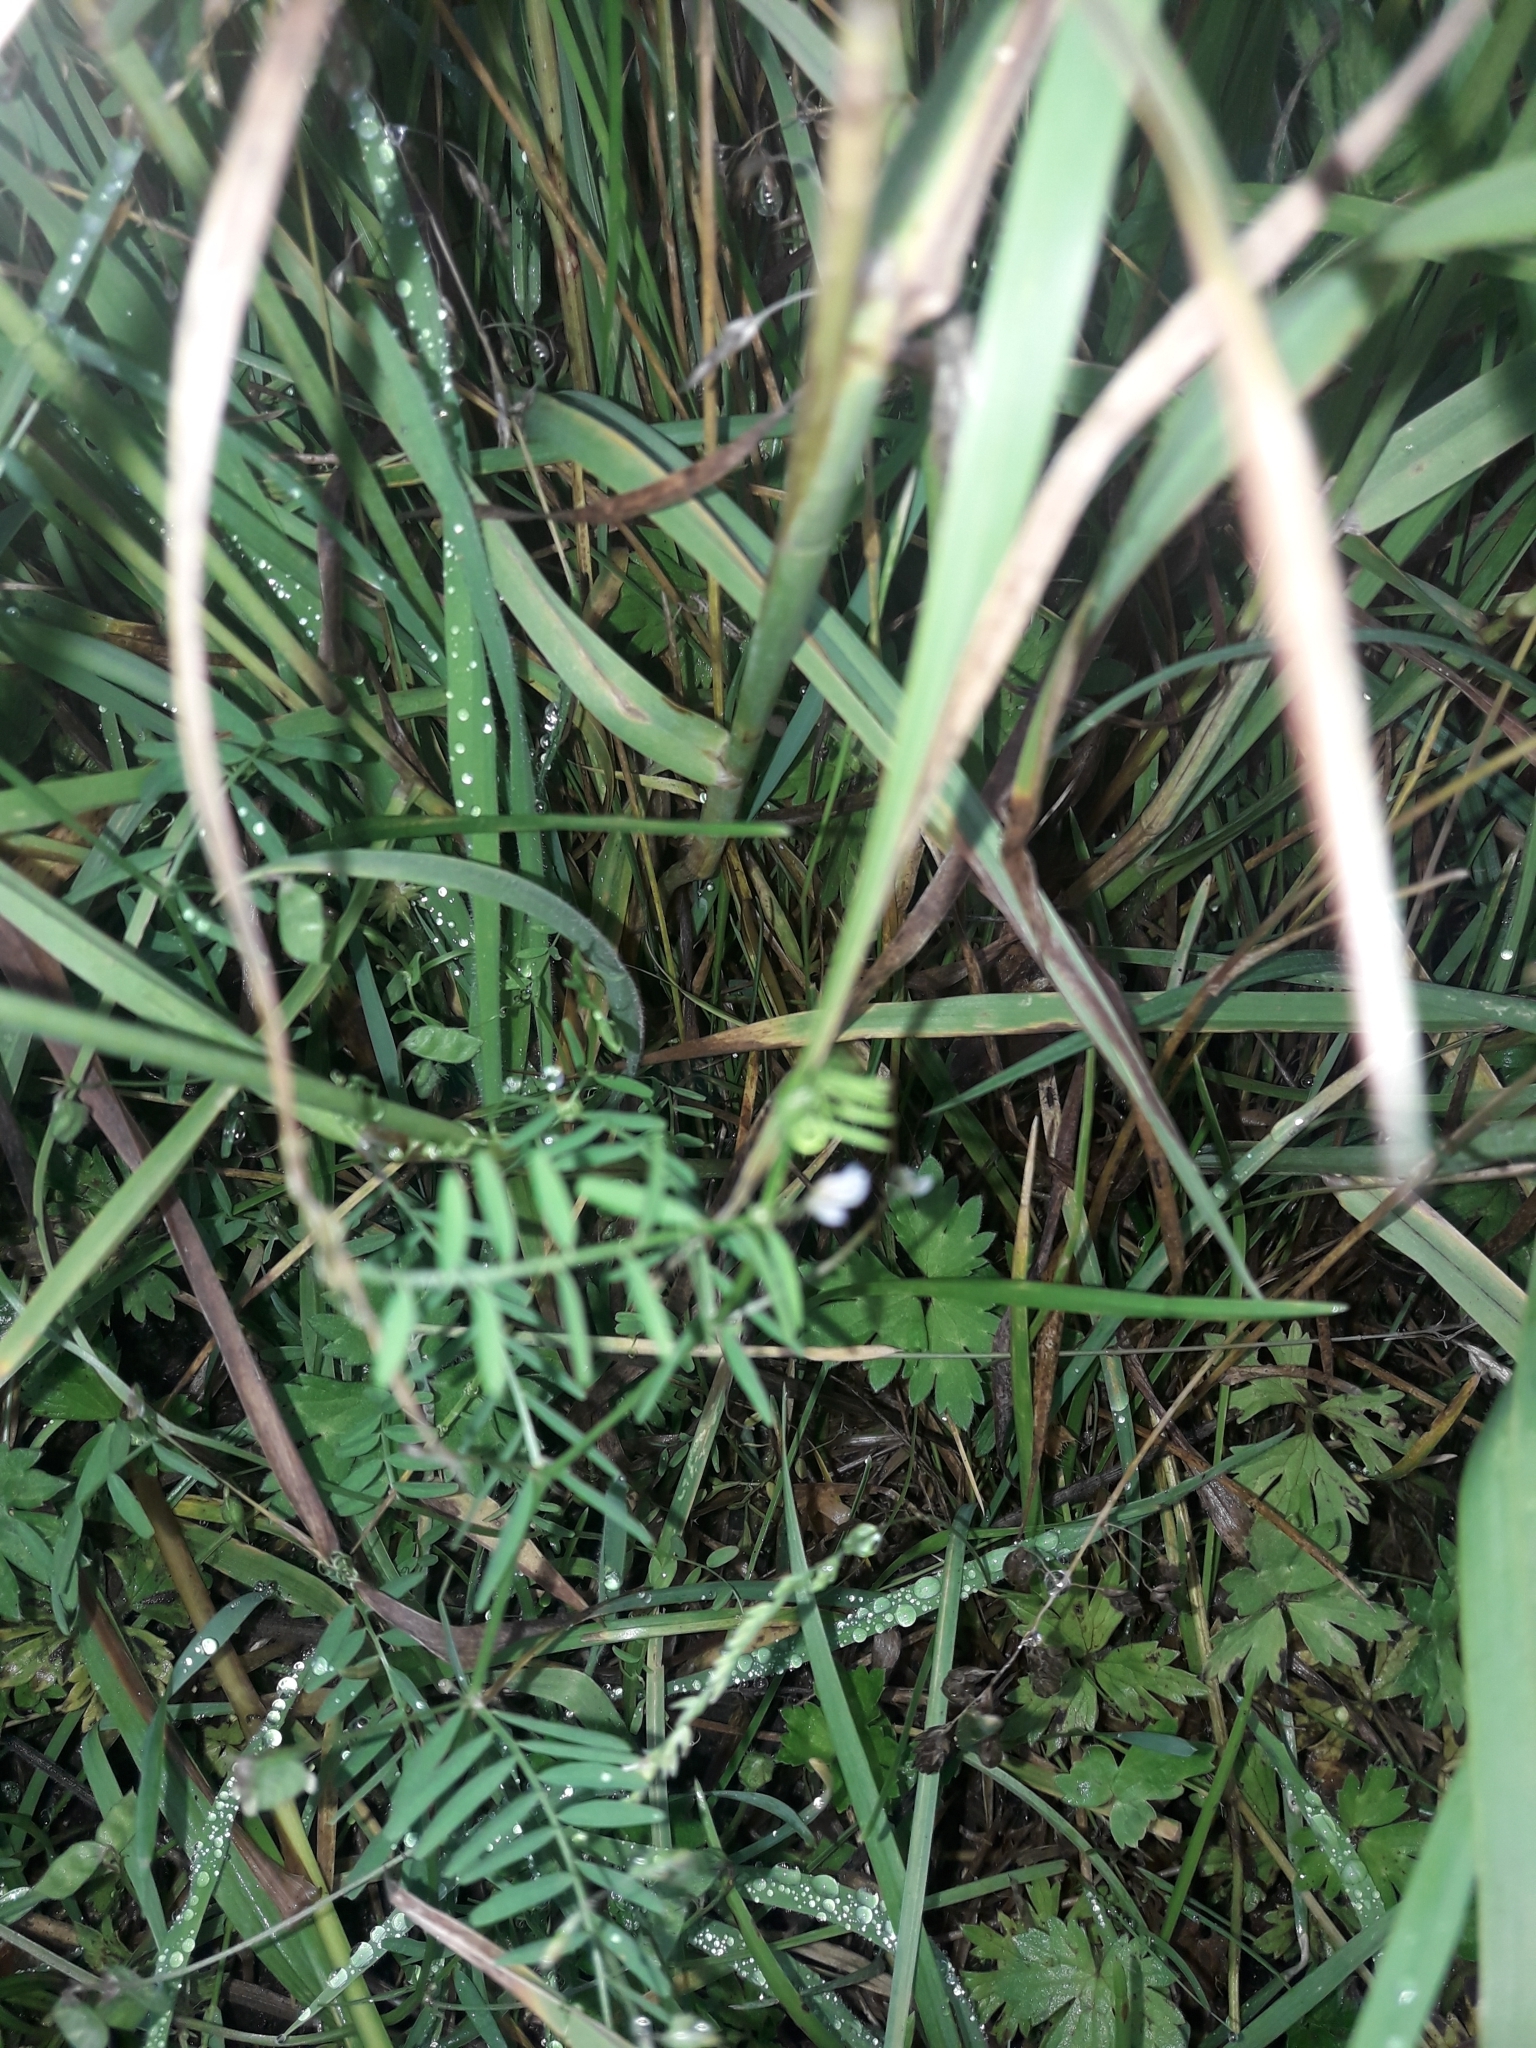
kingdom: Plantae
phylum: Tracheophyta
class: Magnoliopsida
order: Fabales
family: Fabaceae
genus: Vicia
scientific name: Vicia hirsuta
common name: Tiny vetch
